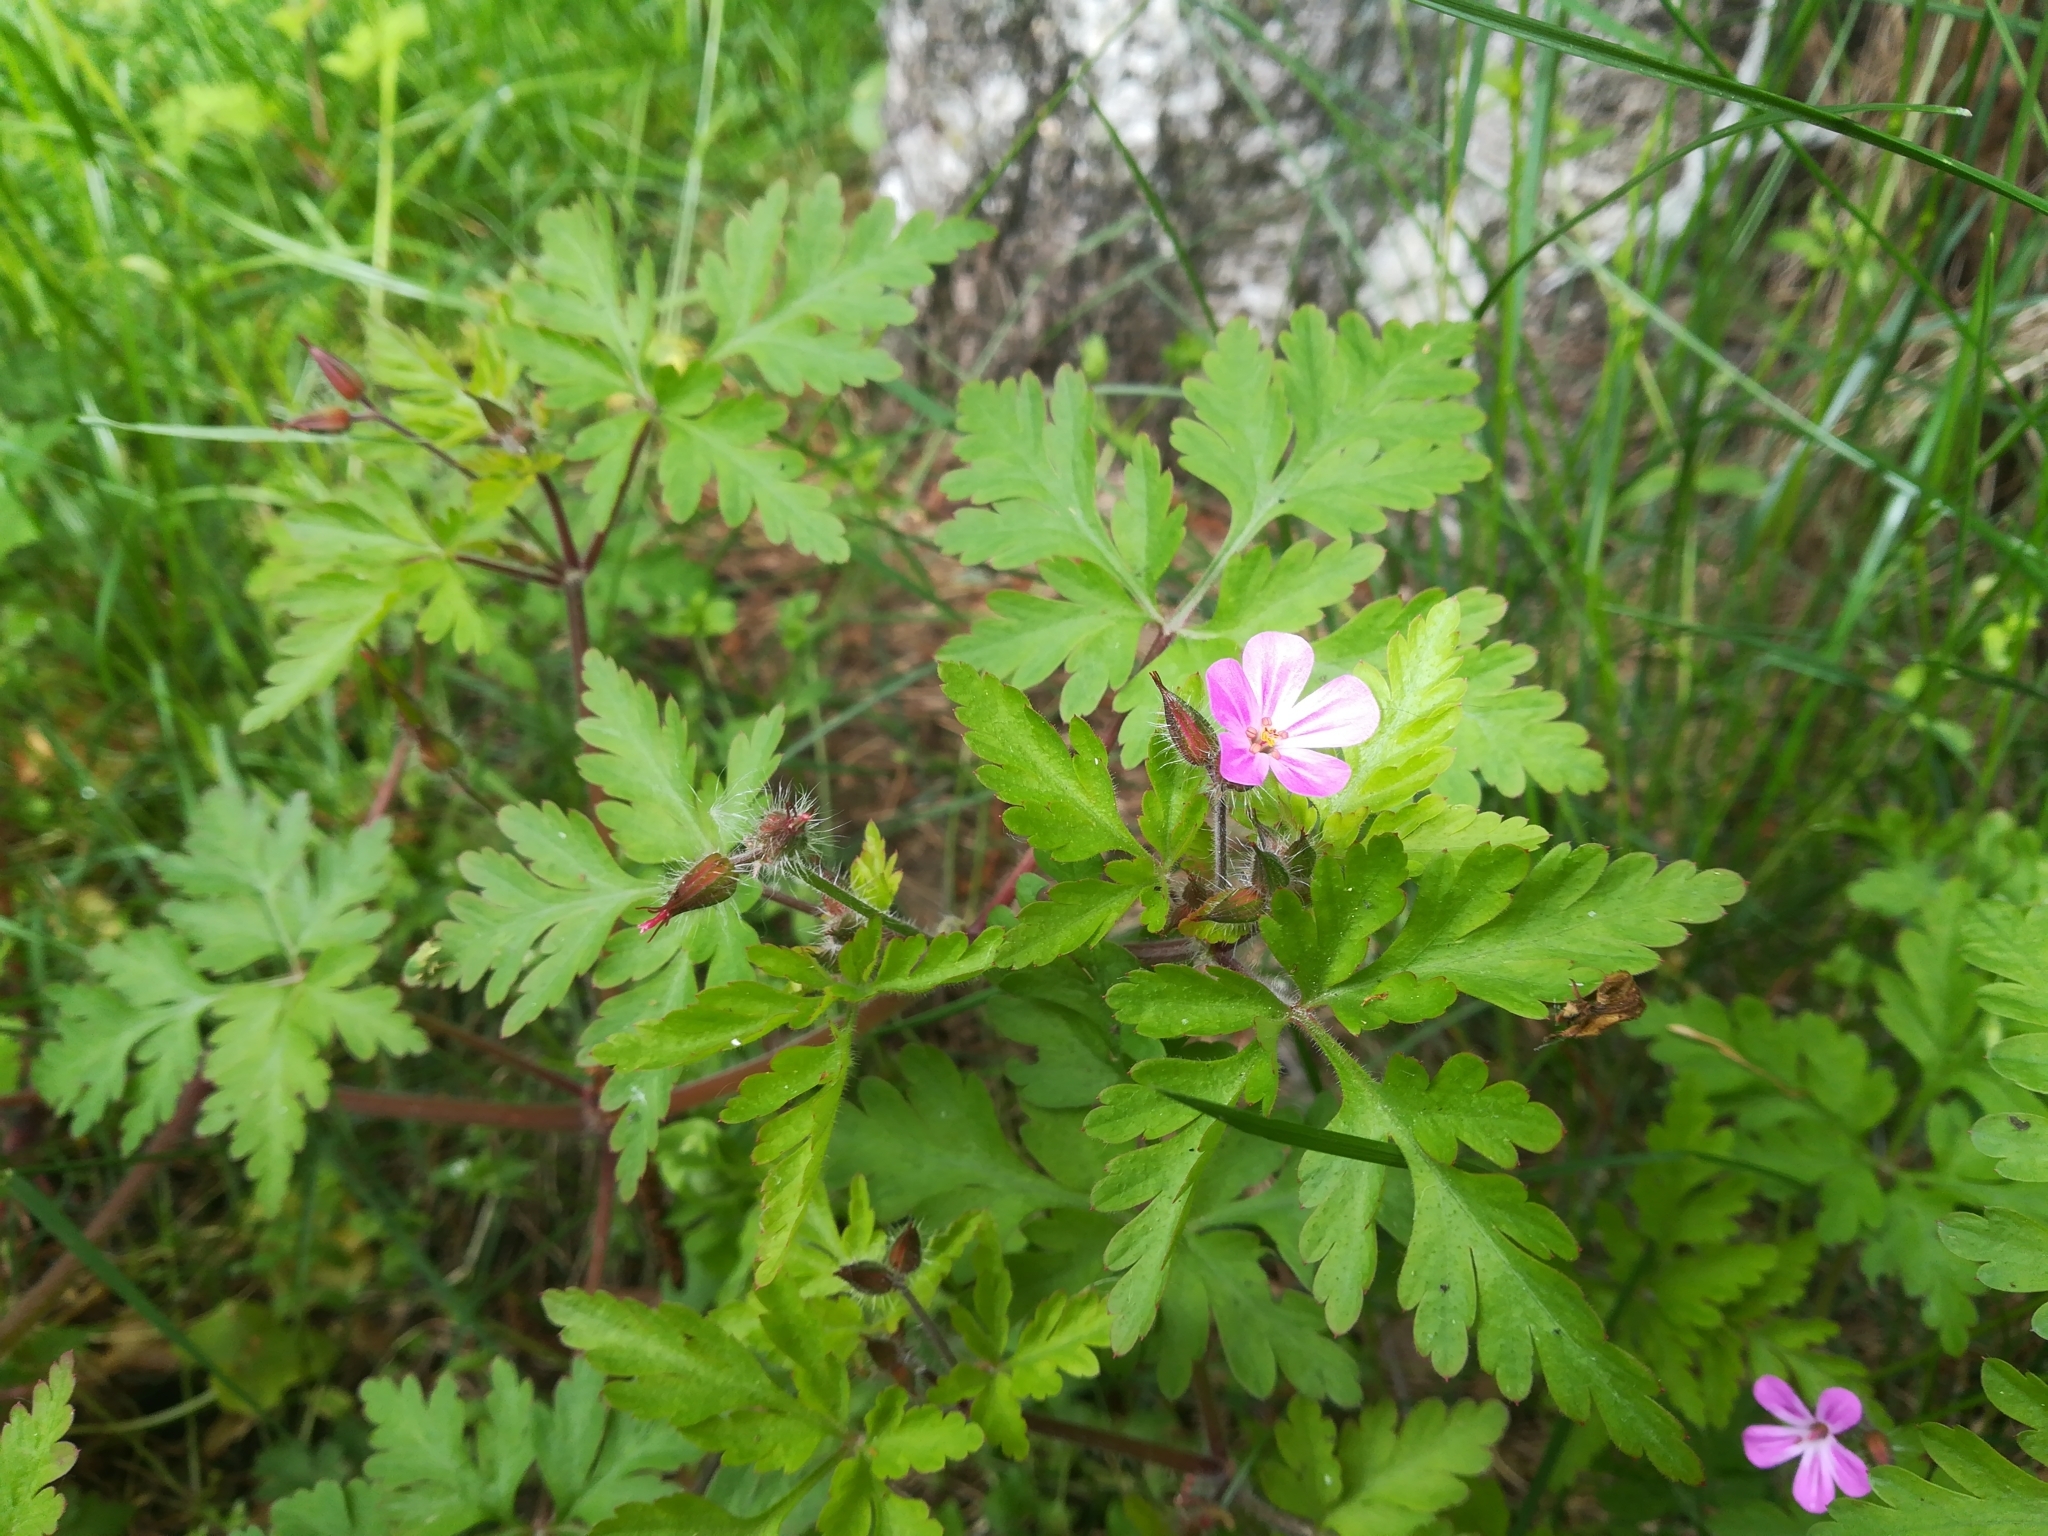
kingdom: Plantae
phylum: Tracheophyta
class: Magnoliopsida
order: Geraniales
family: Geraniaceae
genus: Geranium
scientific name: Geranium robertianum
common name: Herb-robert
